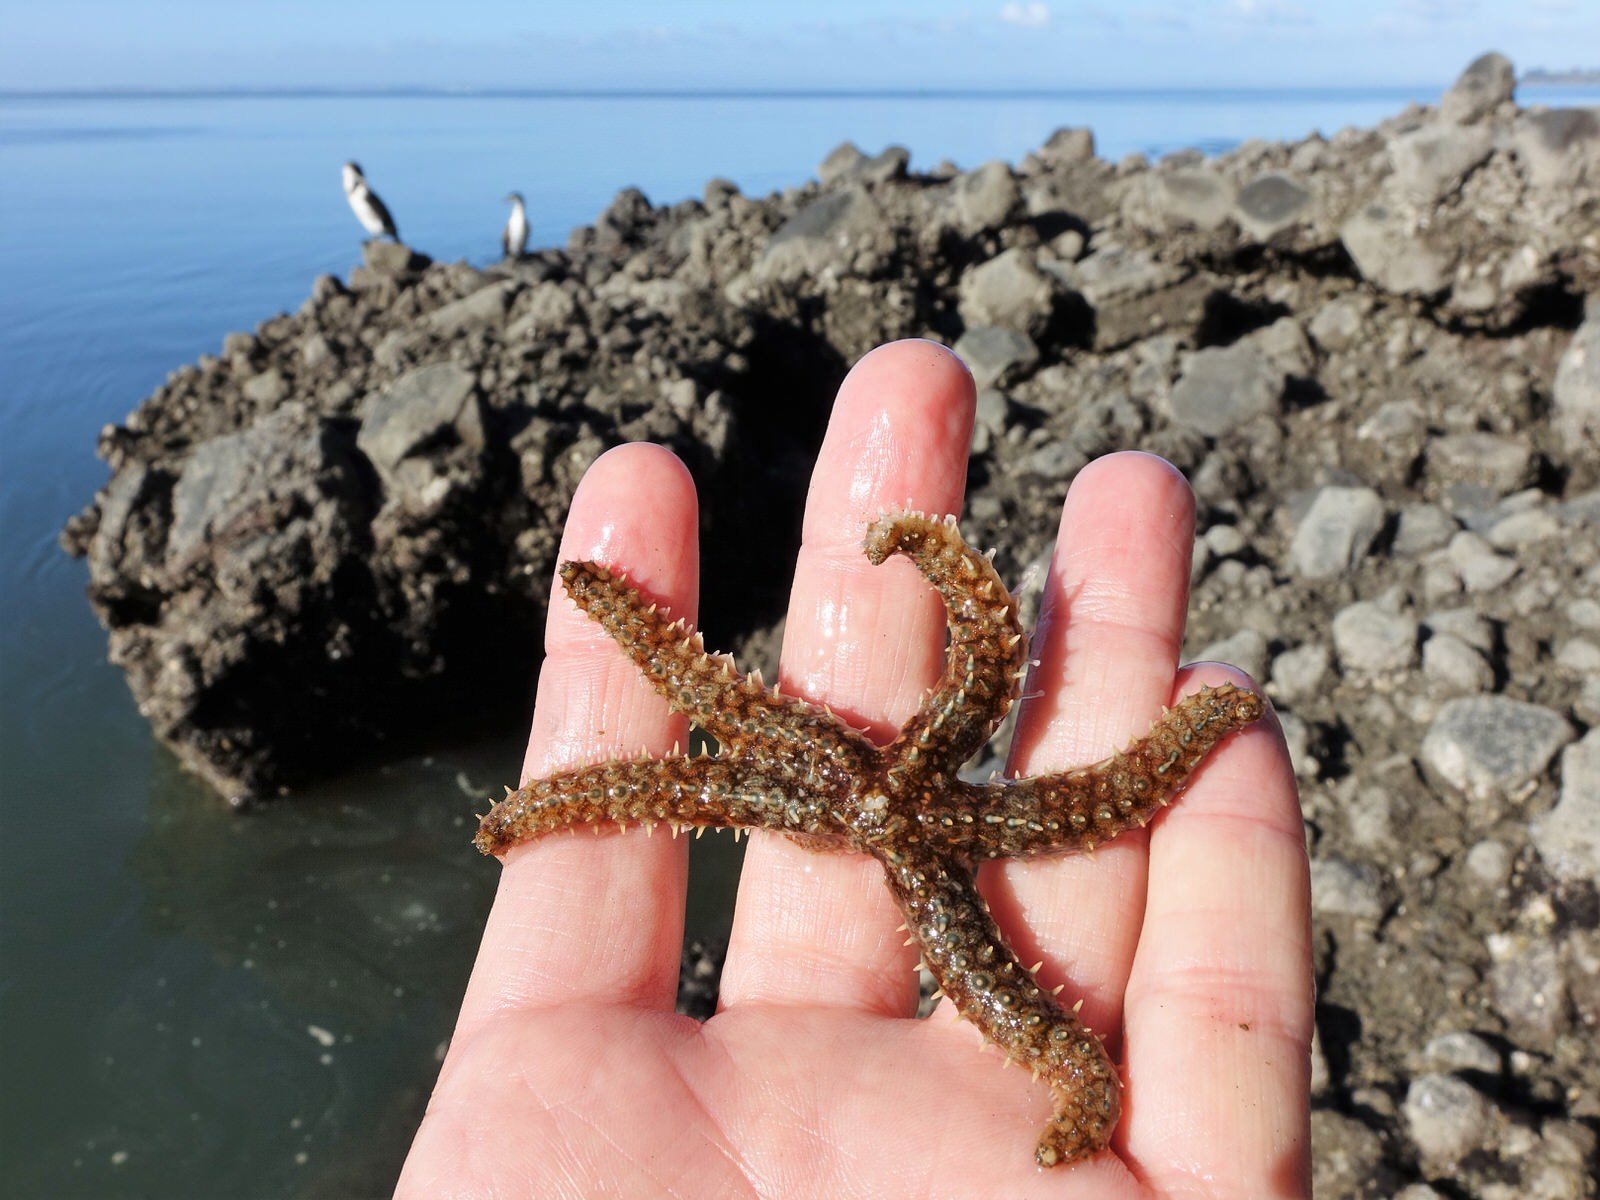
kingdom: Animalia
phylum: Echinodermata
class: Asteroidea
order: Forcipulatida
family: Asteriidae
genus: Coscinasterias
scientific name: Coscinasterias muricata
